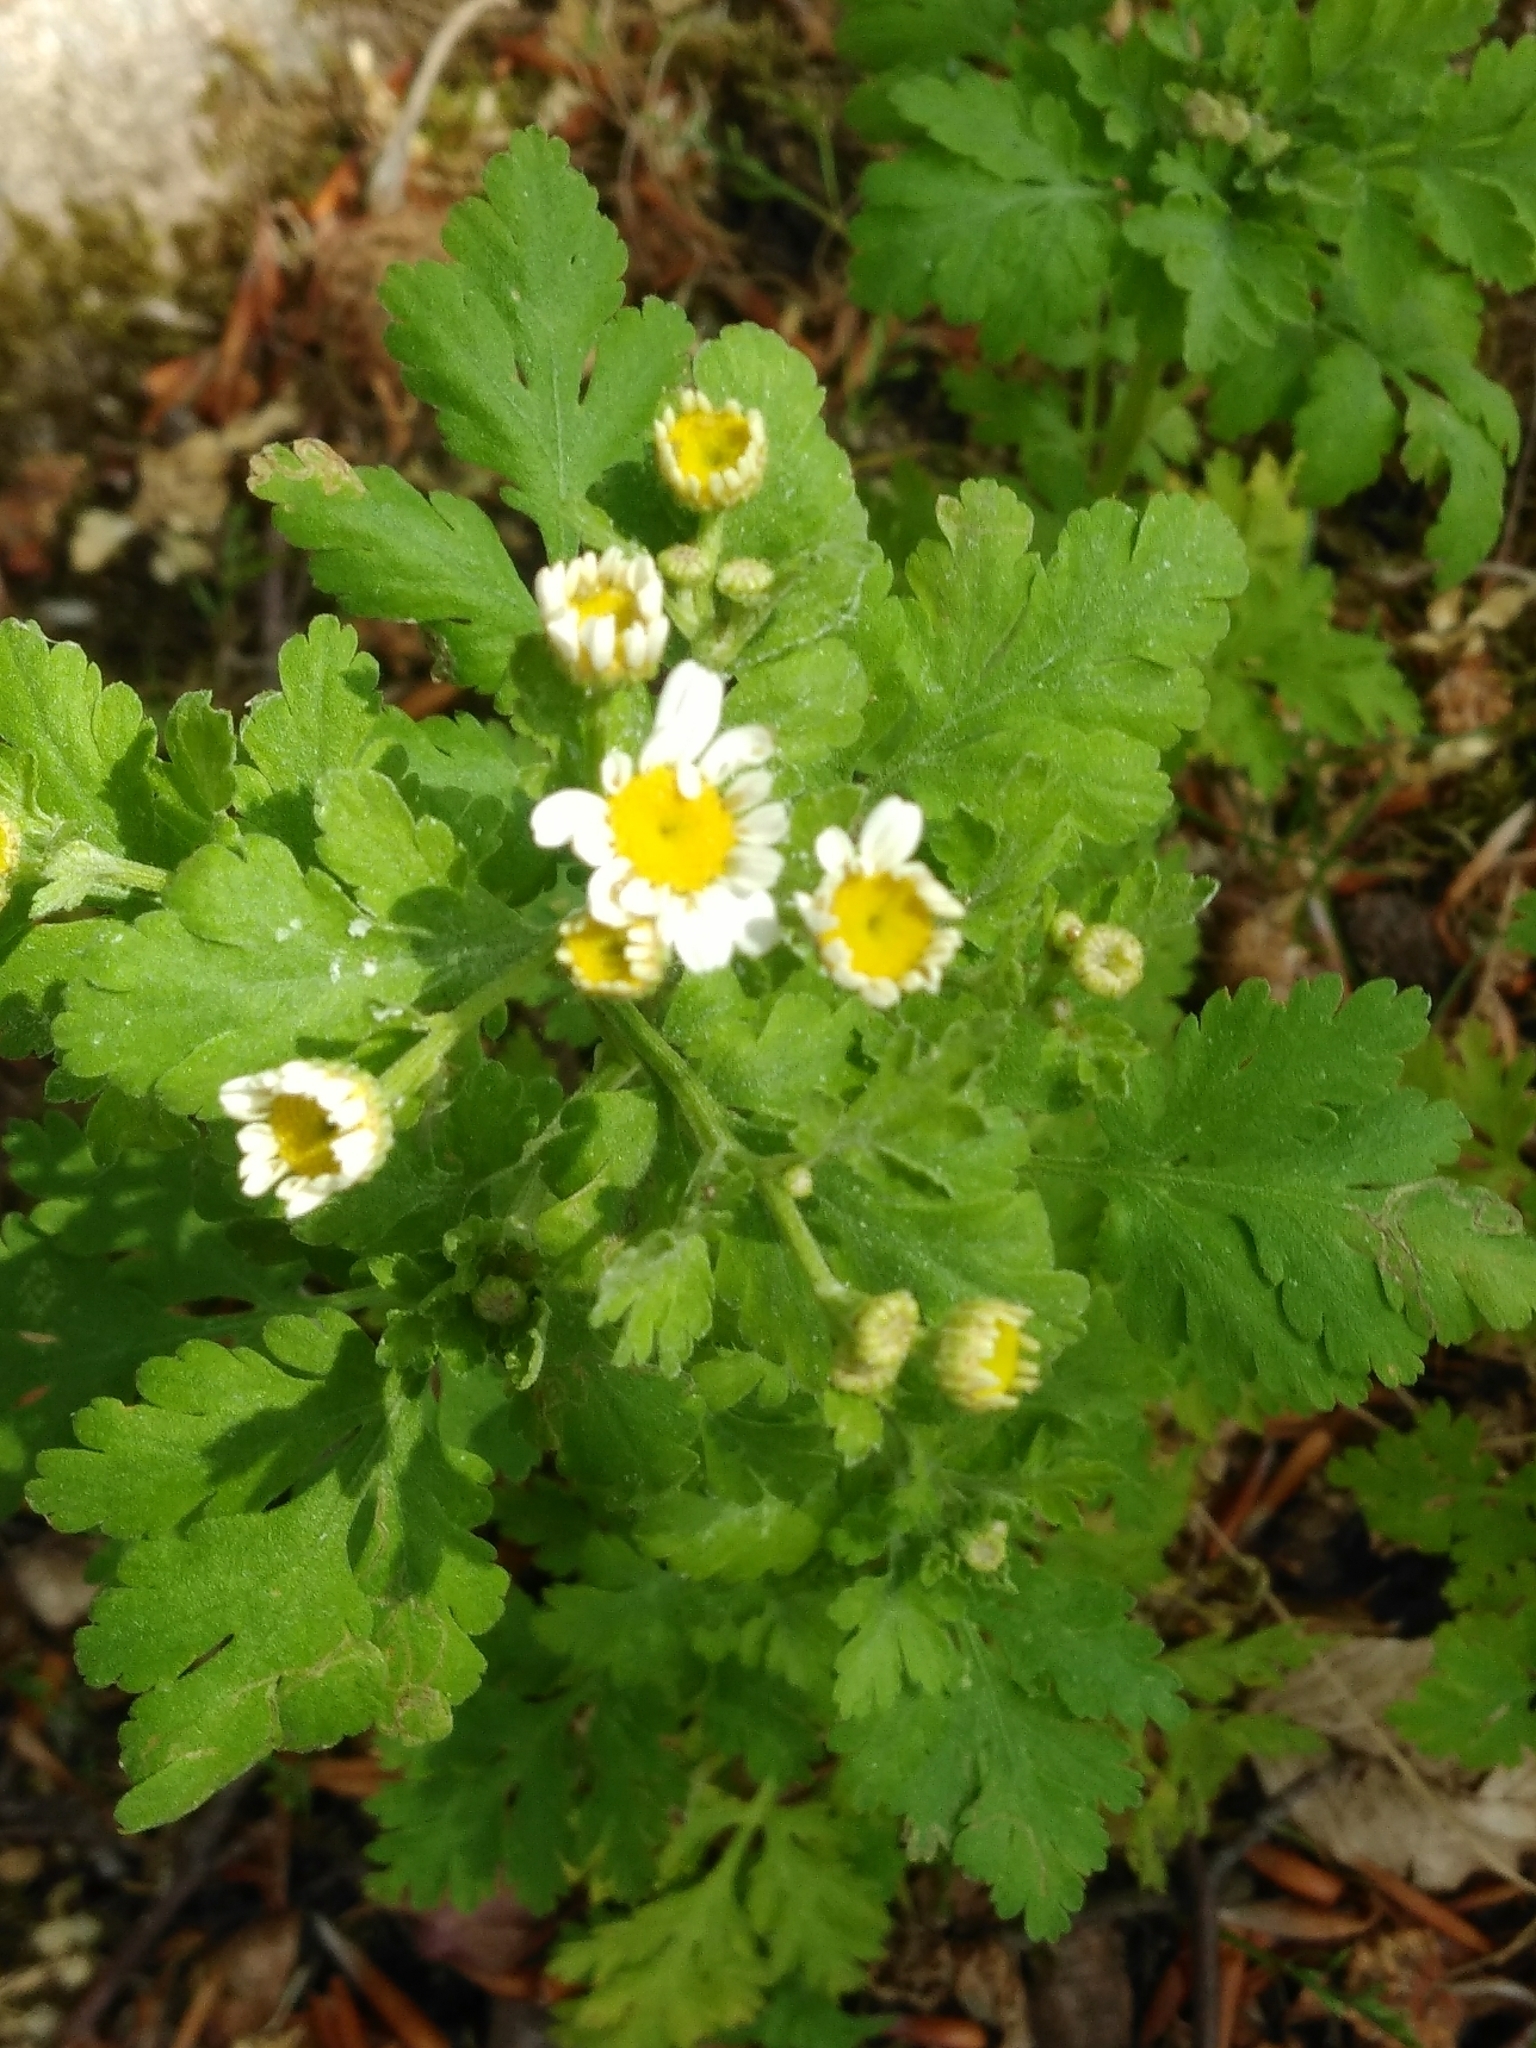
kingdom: Plantae
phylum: Tracheophyta
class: Magnoliopsida
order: Asterales
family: Asteraceae
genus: Tanacetum
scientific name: Tanacetum parthenium
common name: Feverfew
